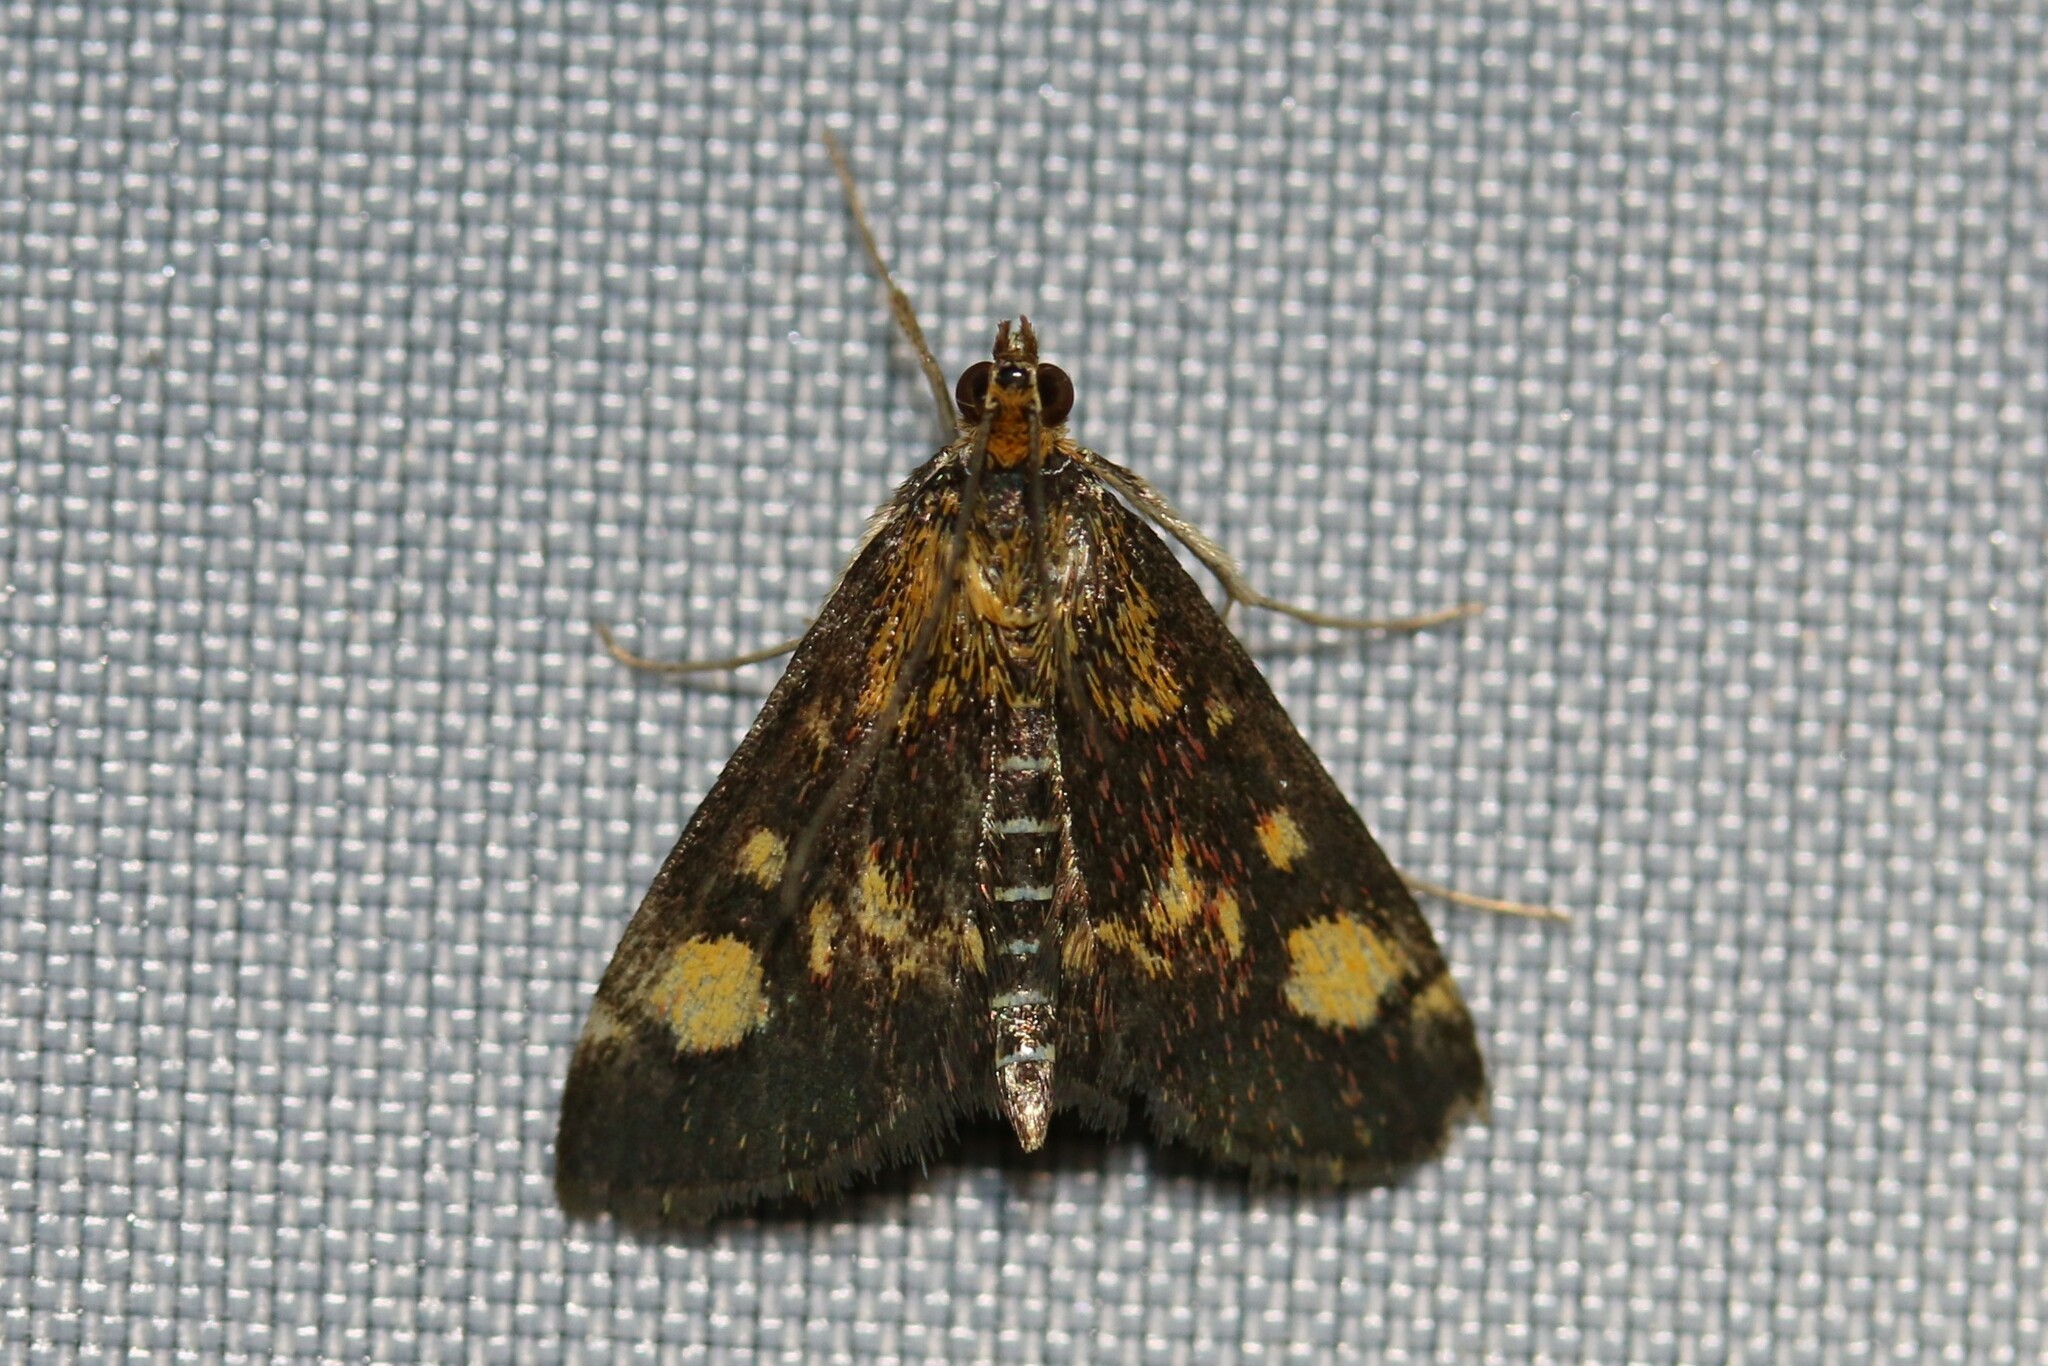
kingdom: Animalia
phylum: Arthropoda
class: Insecta
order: Lepidoptera
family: Crambidae
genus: Pyrausta
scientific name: Pyrausta aurata
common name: Small purple & gold
